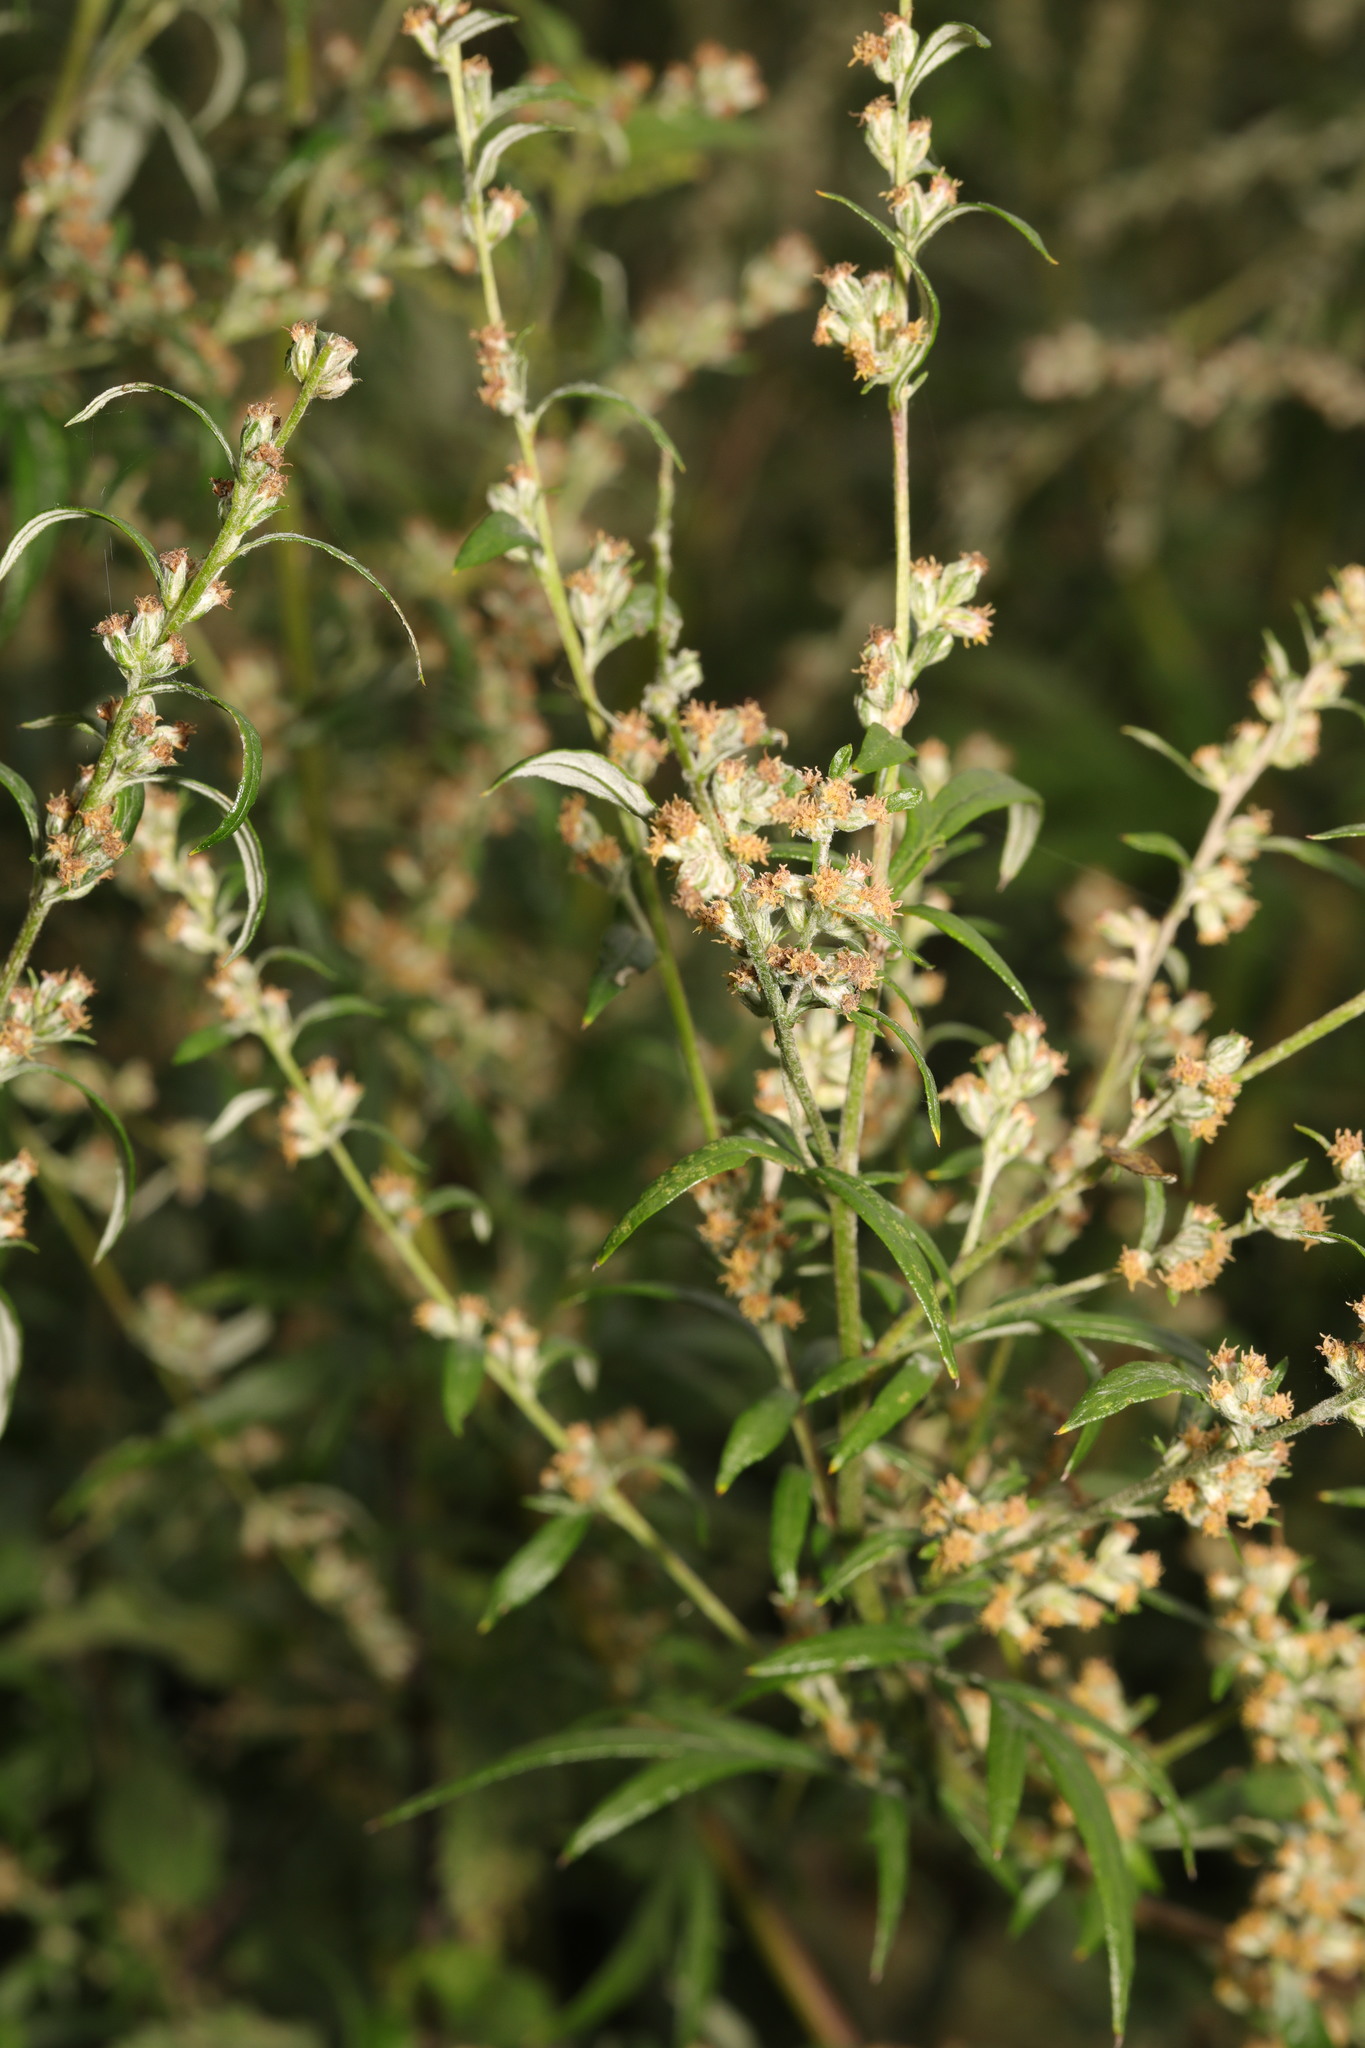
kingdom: Plantae
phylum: Tracheophyta
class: Magnoliopsida
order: Asterales
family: Asteraceae
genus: Artemisia
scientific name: Artemisia vulgaris
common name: Mugwort
